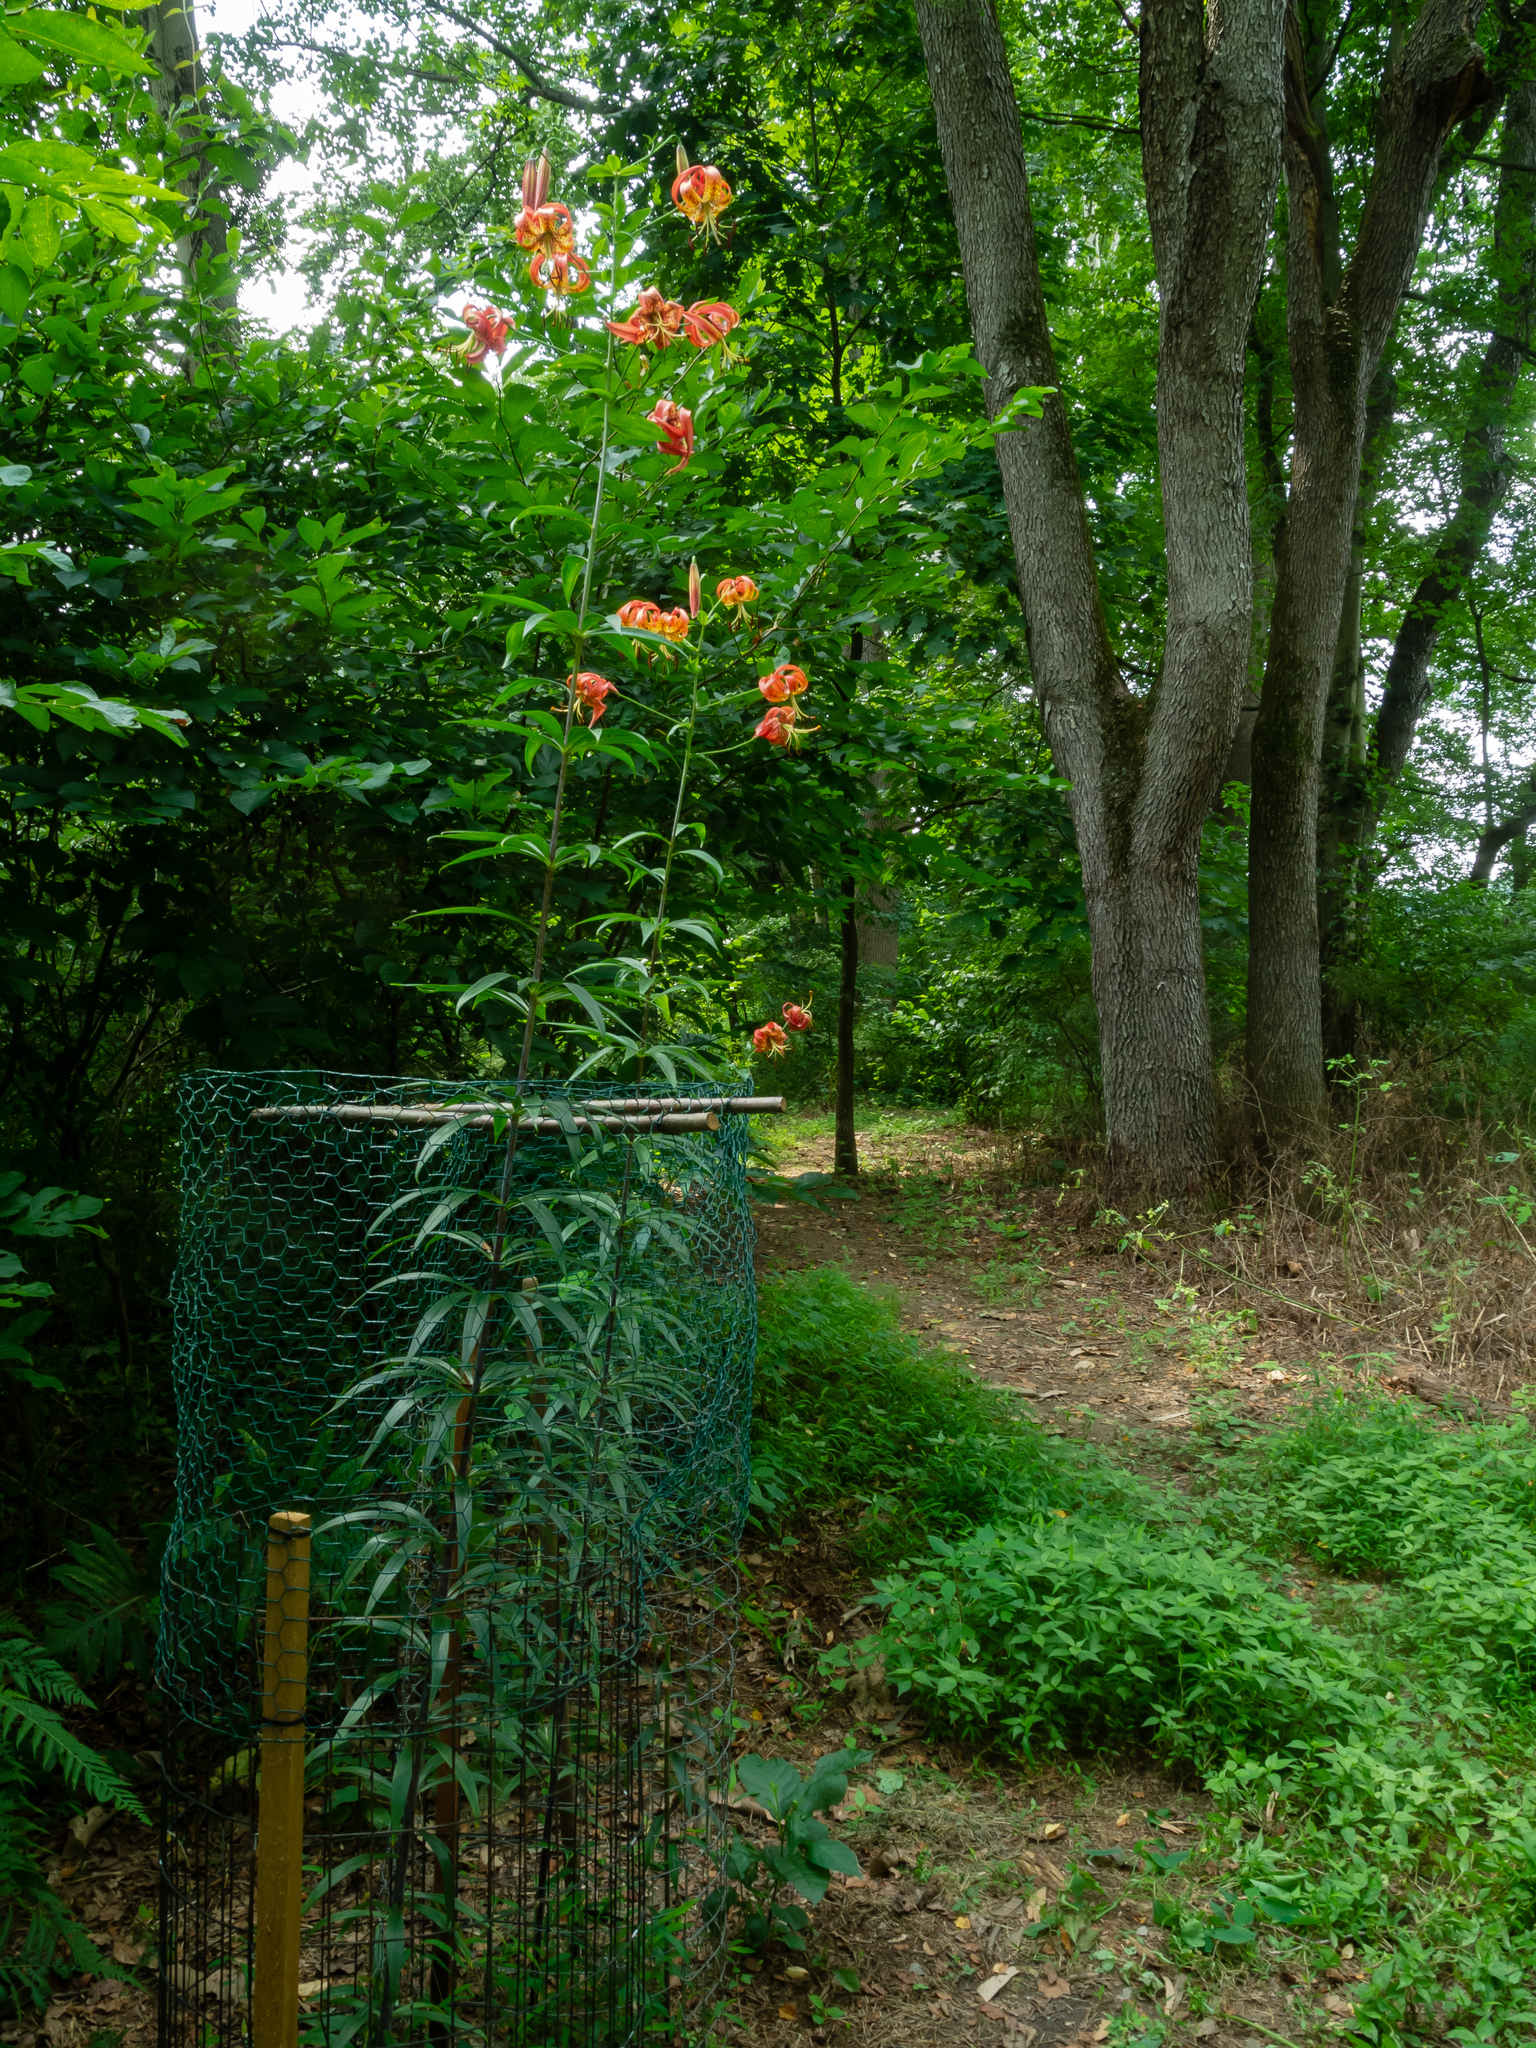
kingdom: Plantae
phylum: Tracheophyta
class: Liliopsida
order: Liliales
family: Liliaceae
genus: Lilium
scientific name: Lilium superbum
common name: American turk's-cap lily
